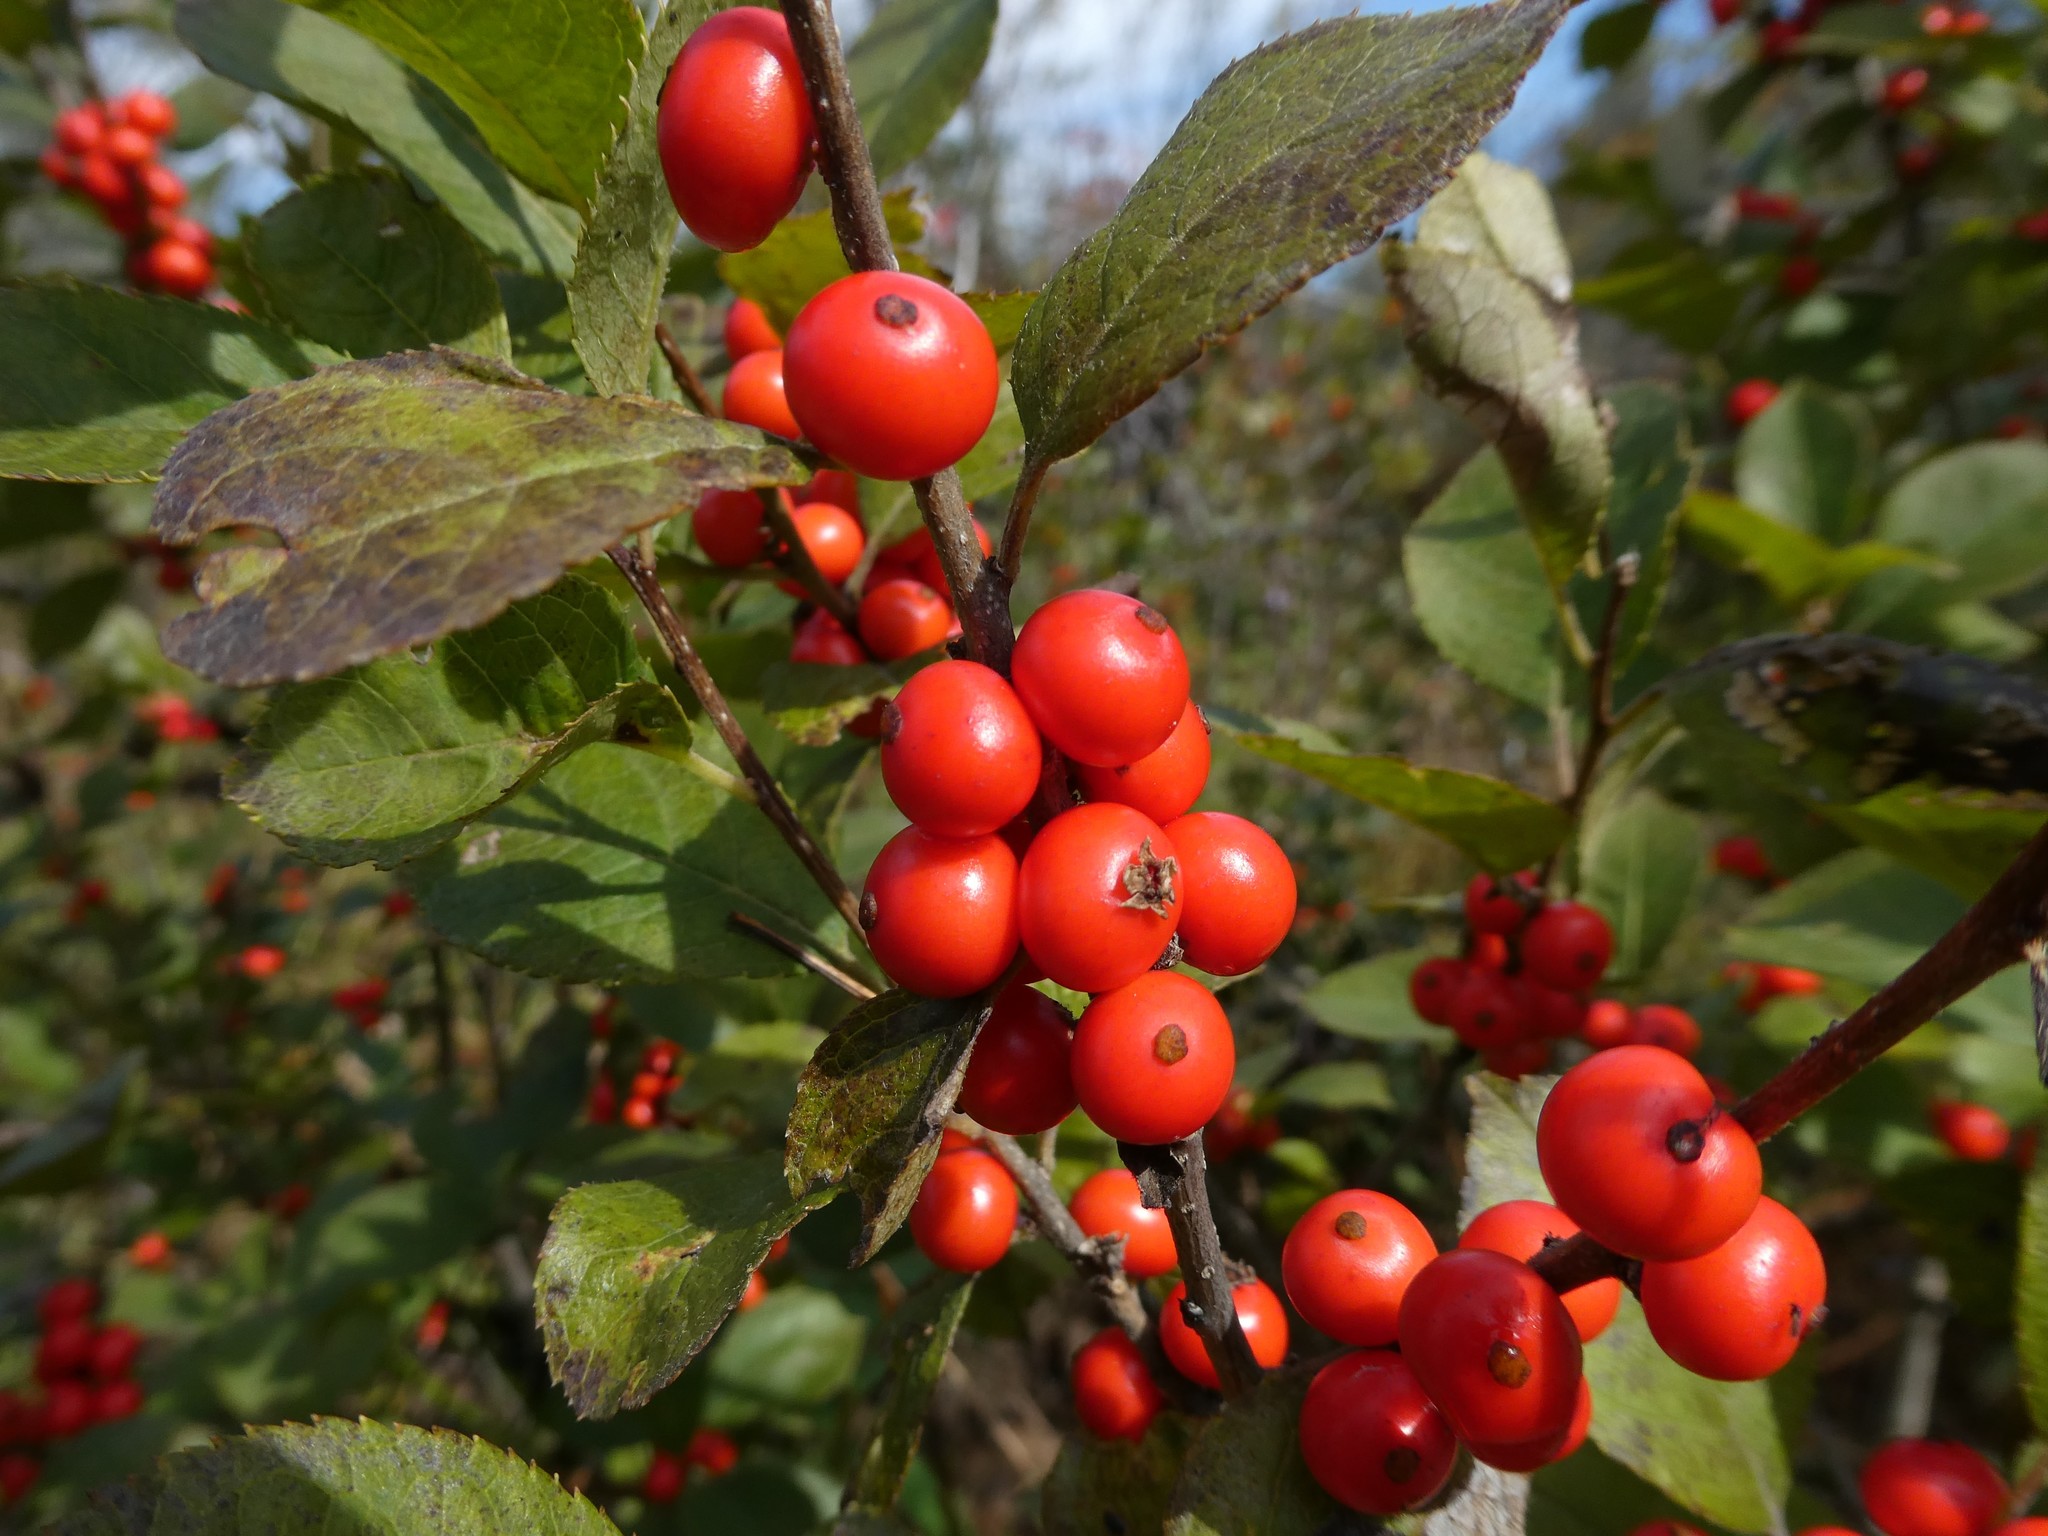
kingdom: Plantae
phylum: Tracheophyta
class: Magnoliopsida
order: Aquifoliales
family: Aquifoliaceae
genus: Ilex
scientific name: Ilex verticillata
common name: Virginia winterberry
